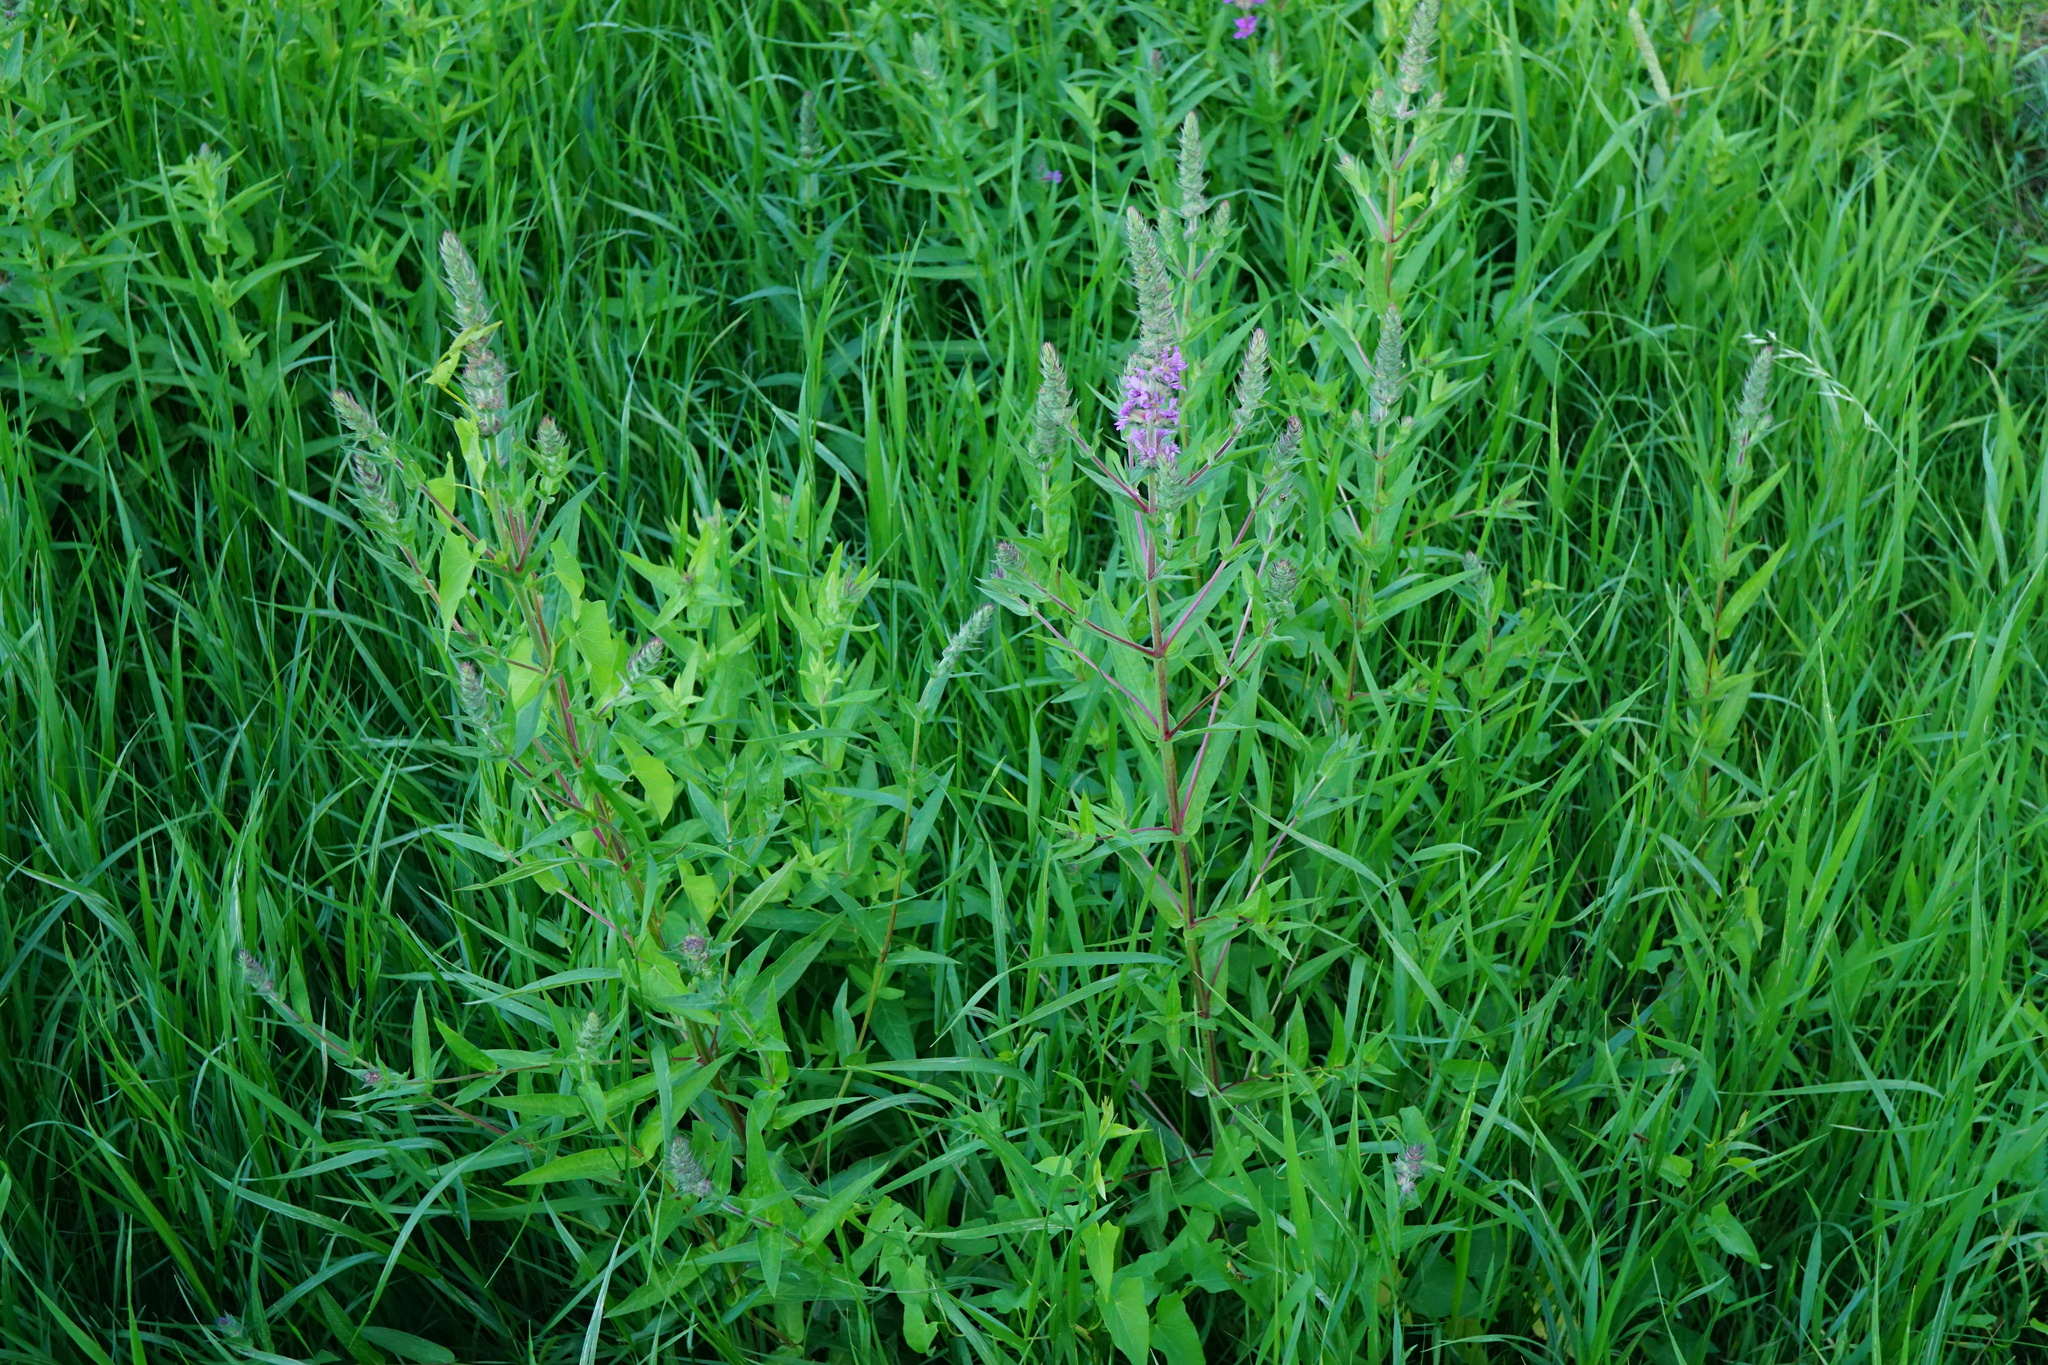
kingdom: Plantae
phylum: Tracheophyta
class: Magnoliopsida
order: Myrtales
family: Lythraceae
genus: Lythrum
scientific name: Lythrum salicaria
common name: Purple loosestrife
